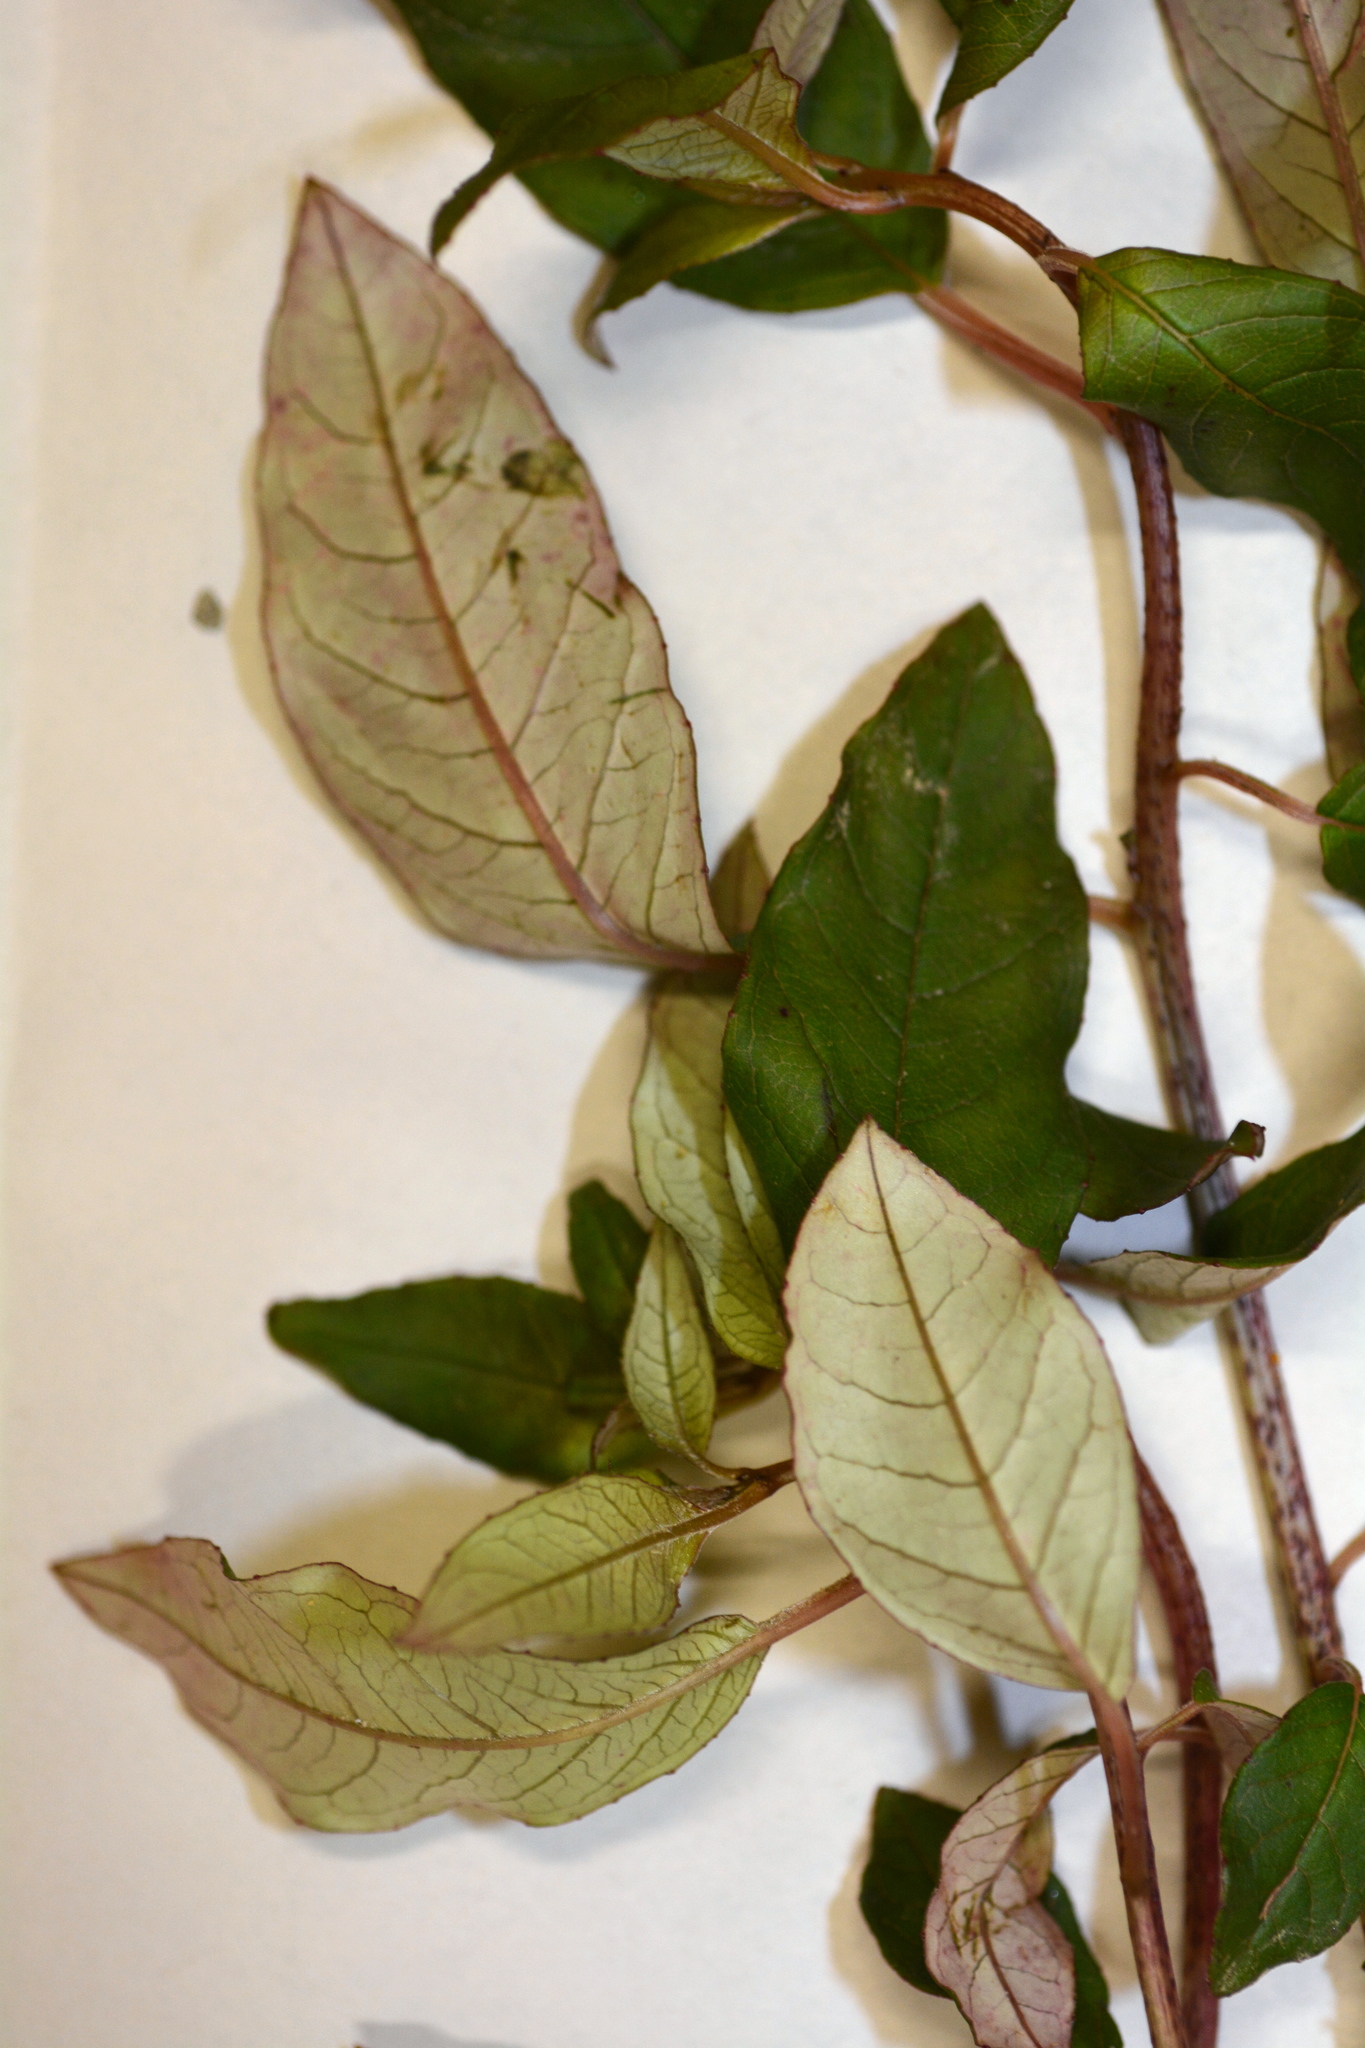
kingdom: Plantae
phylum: Tracheophyta
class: Magnoliopsida
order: Myrtales
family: Onagraceae
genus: Fuchsia
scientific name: Fuchsia excorticata
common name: Tree fuchsia
